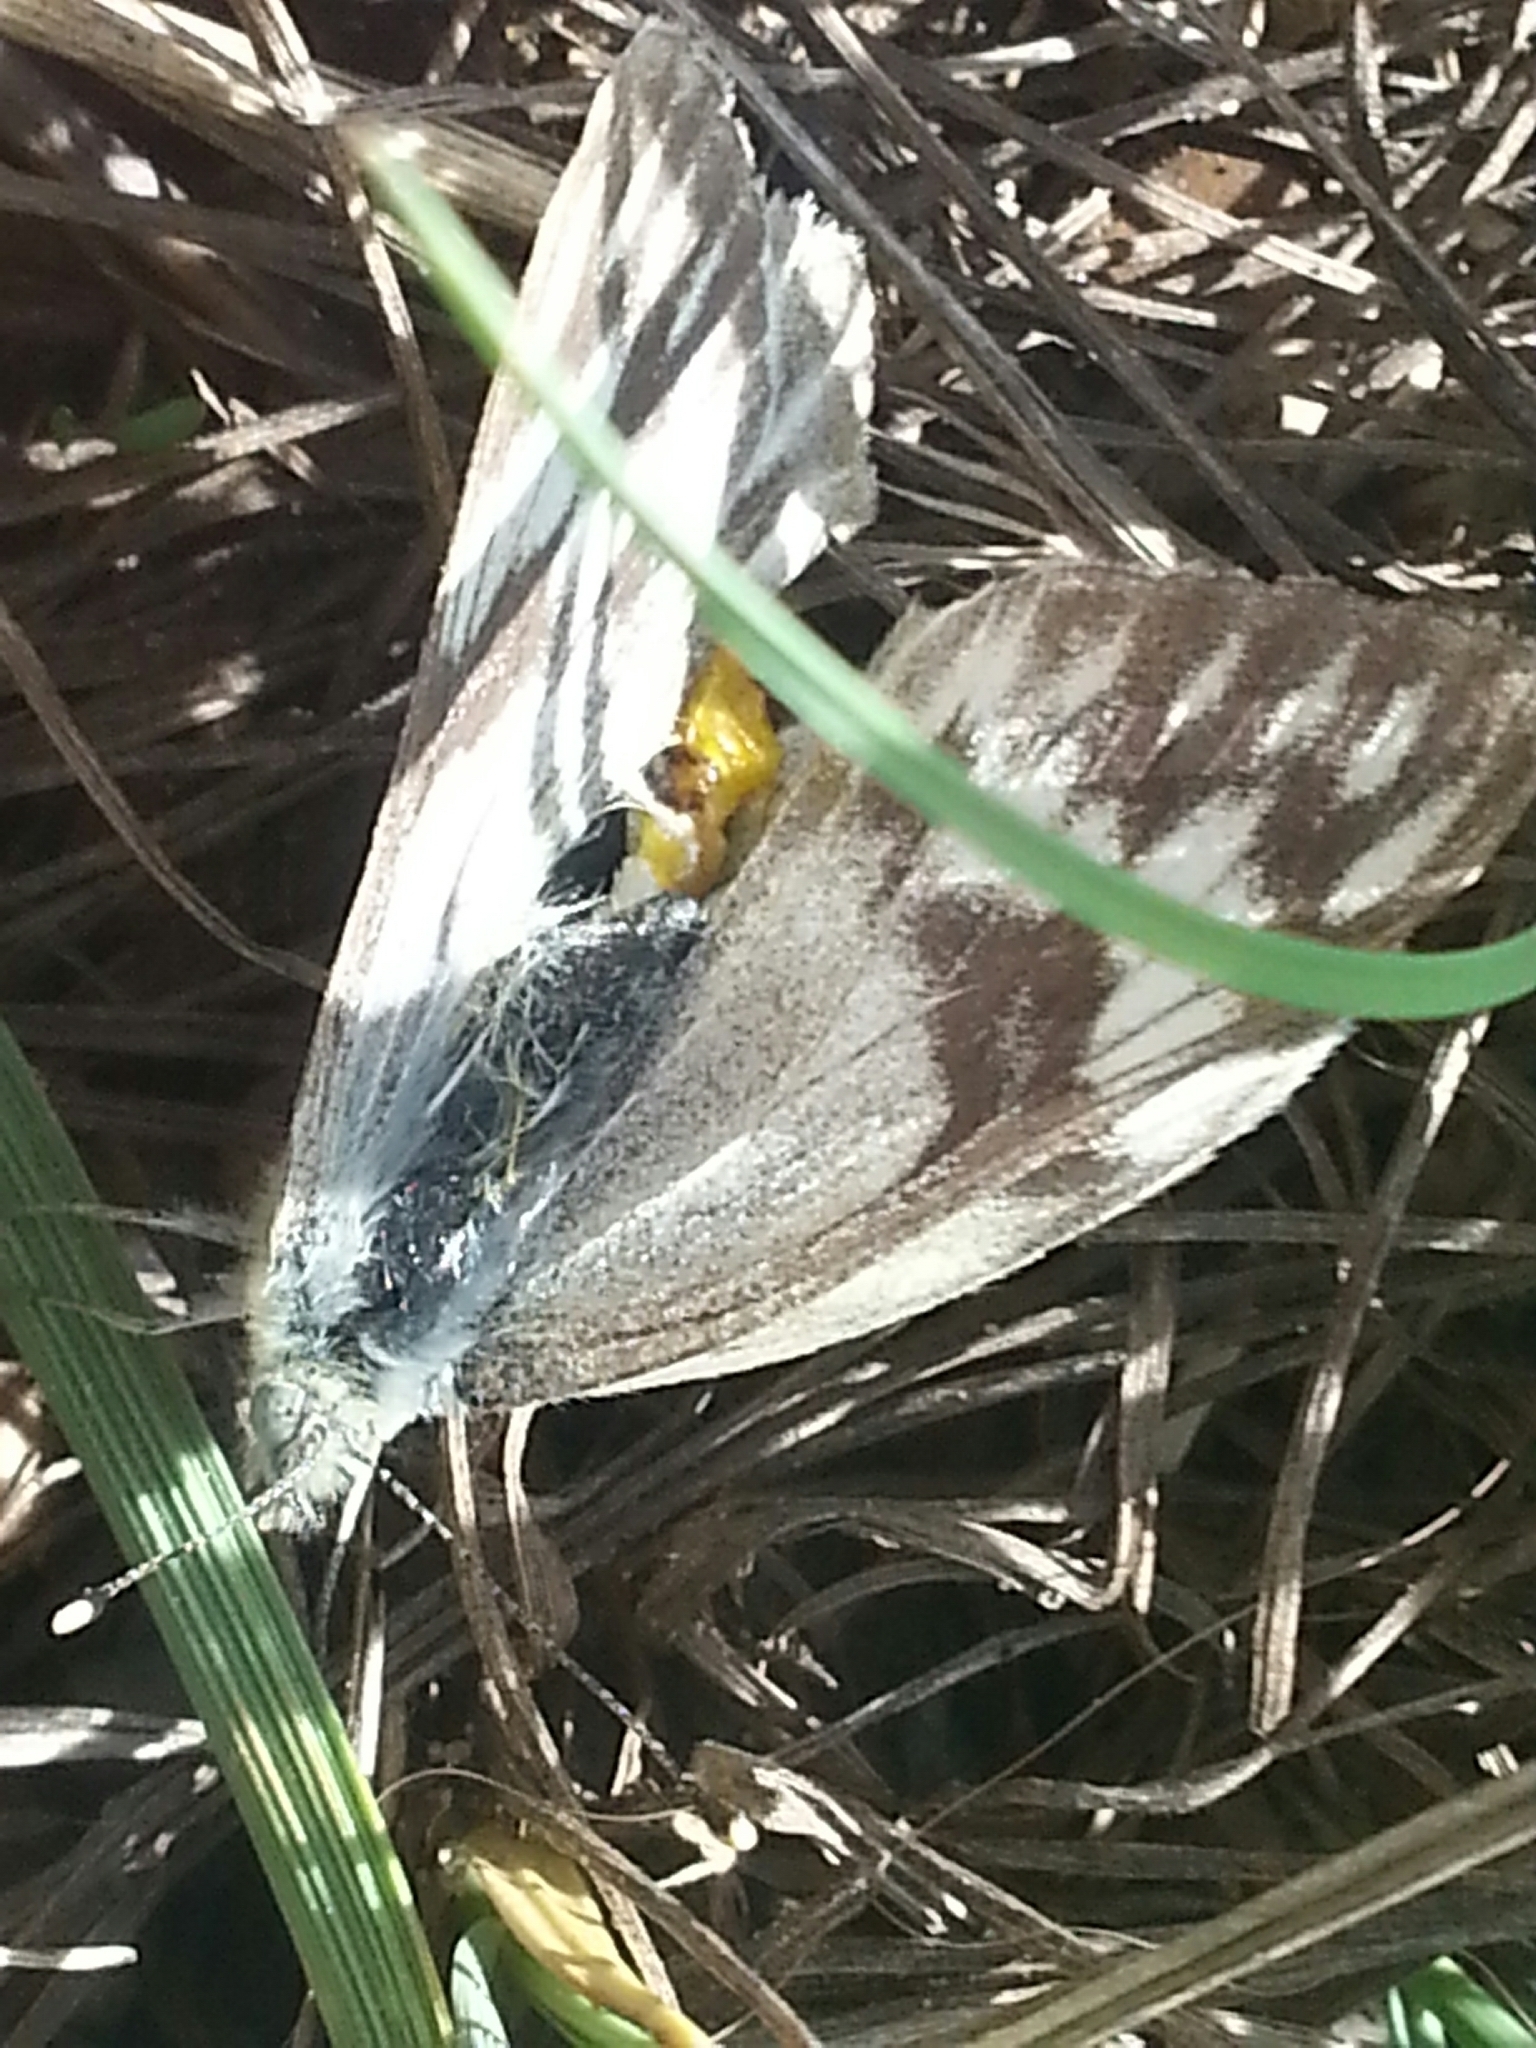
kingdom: Animalia
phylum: Arthropoda
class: Insecta
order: Lepidoptera
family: Pieridae
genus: Pontia
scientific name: Pontia occidentalis
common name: Western white
